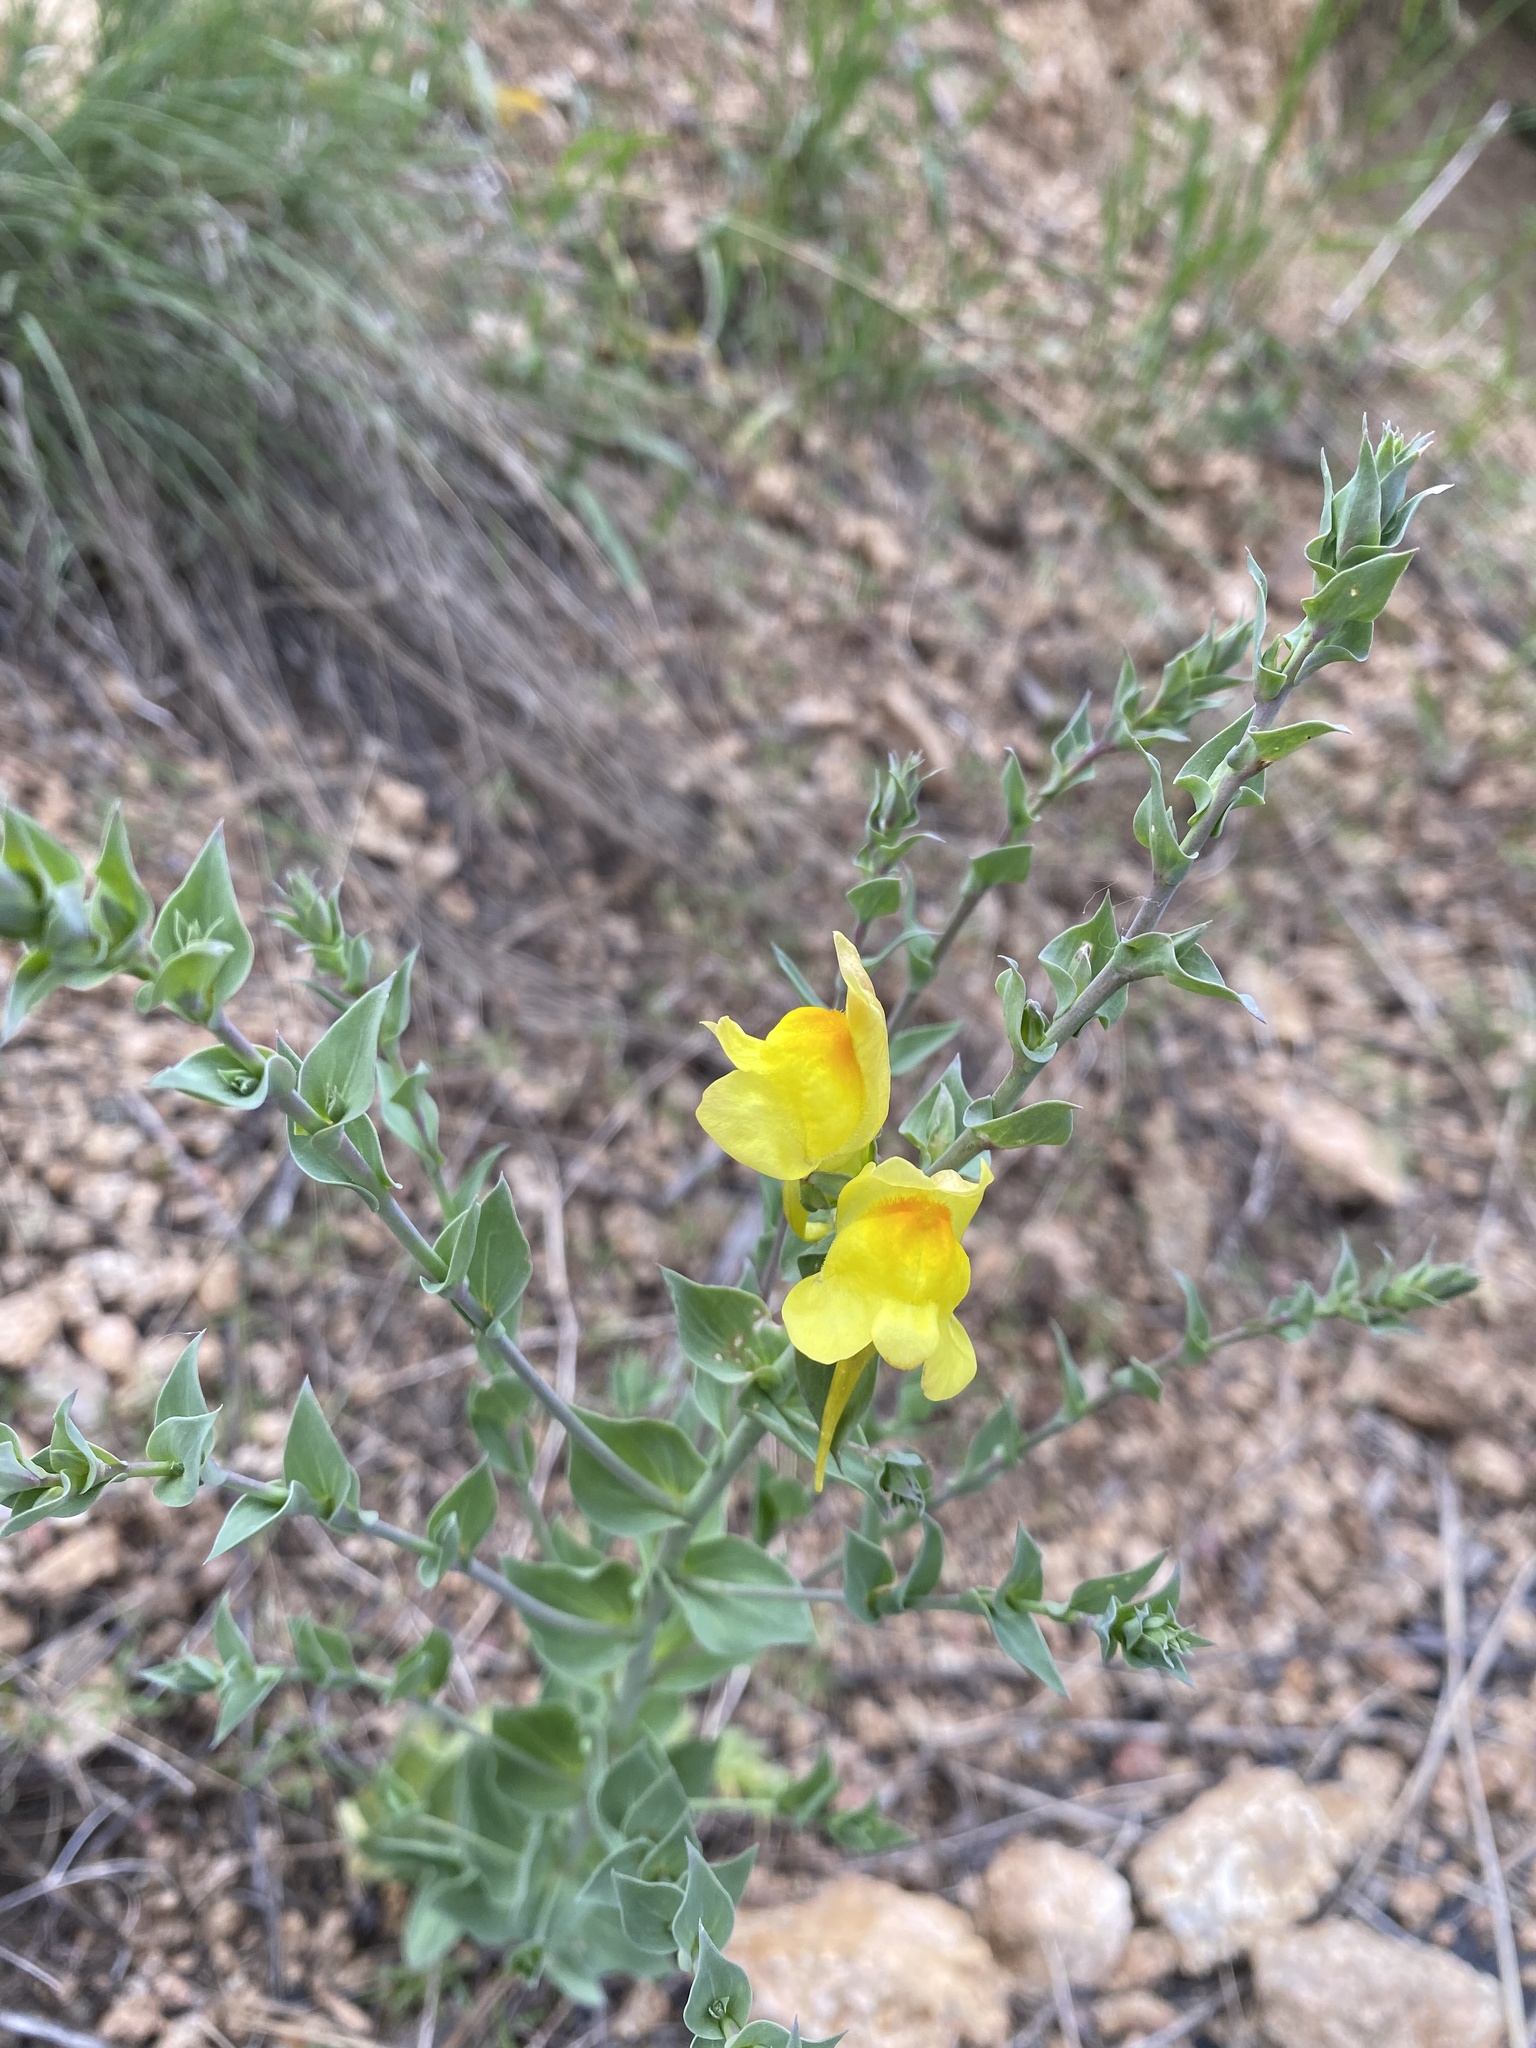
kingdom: Plantae
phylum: Tracheophyta
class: Magnoliopsida
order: Lamiales
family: Plantaginaceae
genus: Linaria
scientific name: Linaria dalmatica
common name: Dalmatian toadflax
